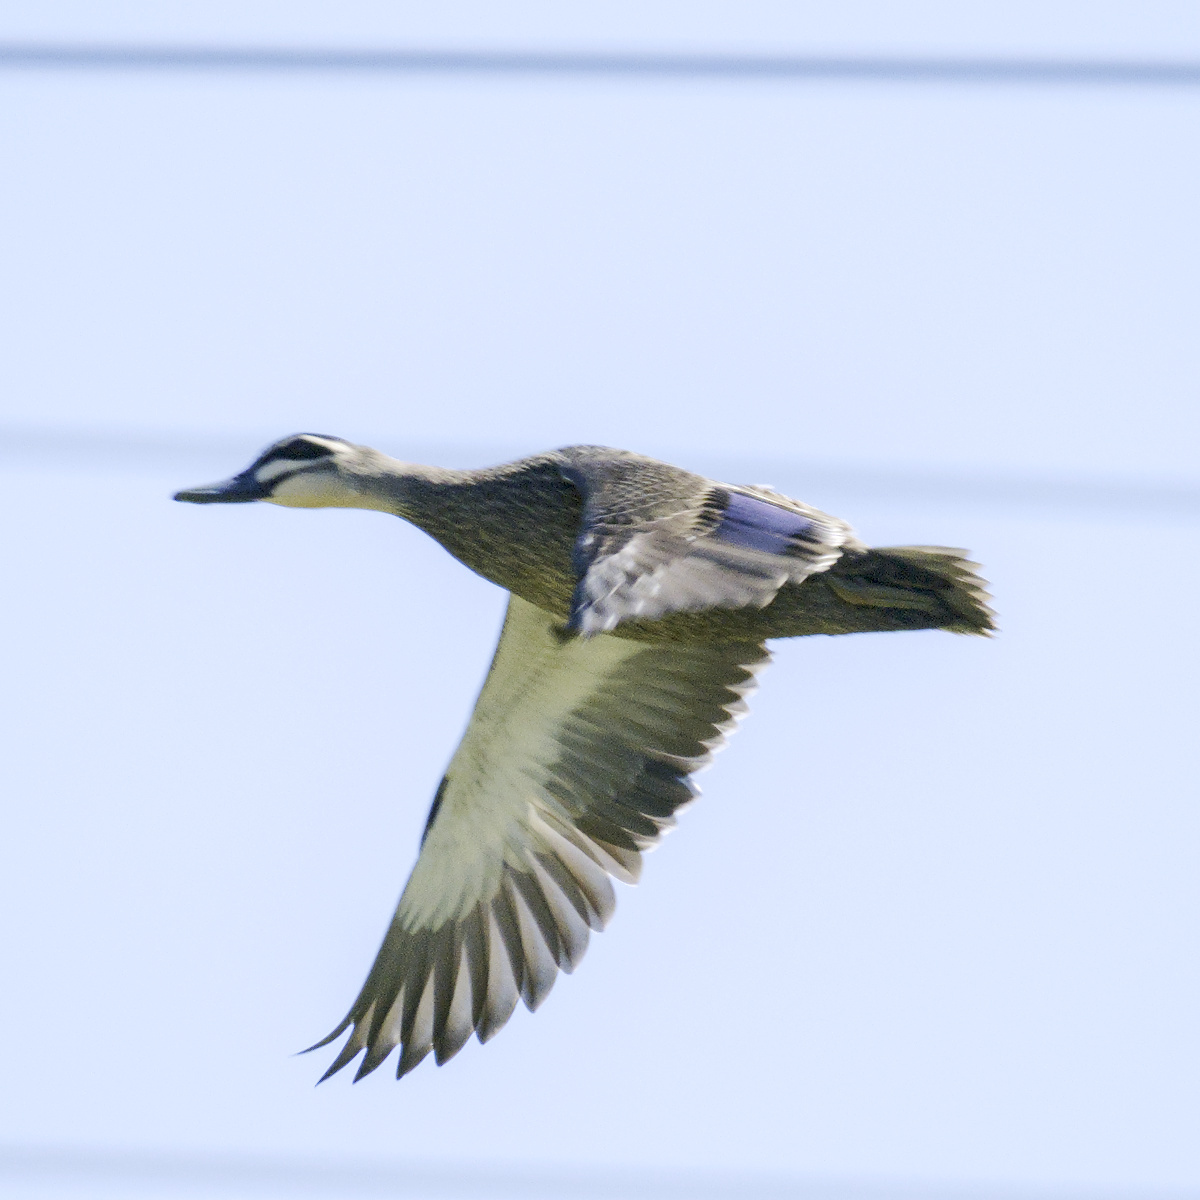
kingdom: Animalia
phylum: Chordata
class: Aves
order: Anseriformes
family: Anatidae
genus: Anas
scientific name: Anas superciliosa
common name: Pacific black duck
